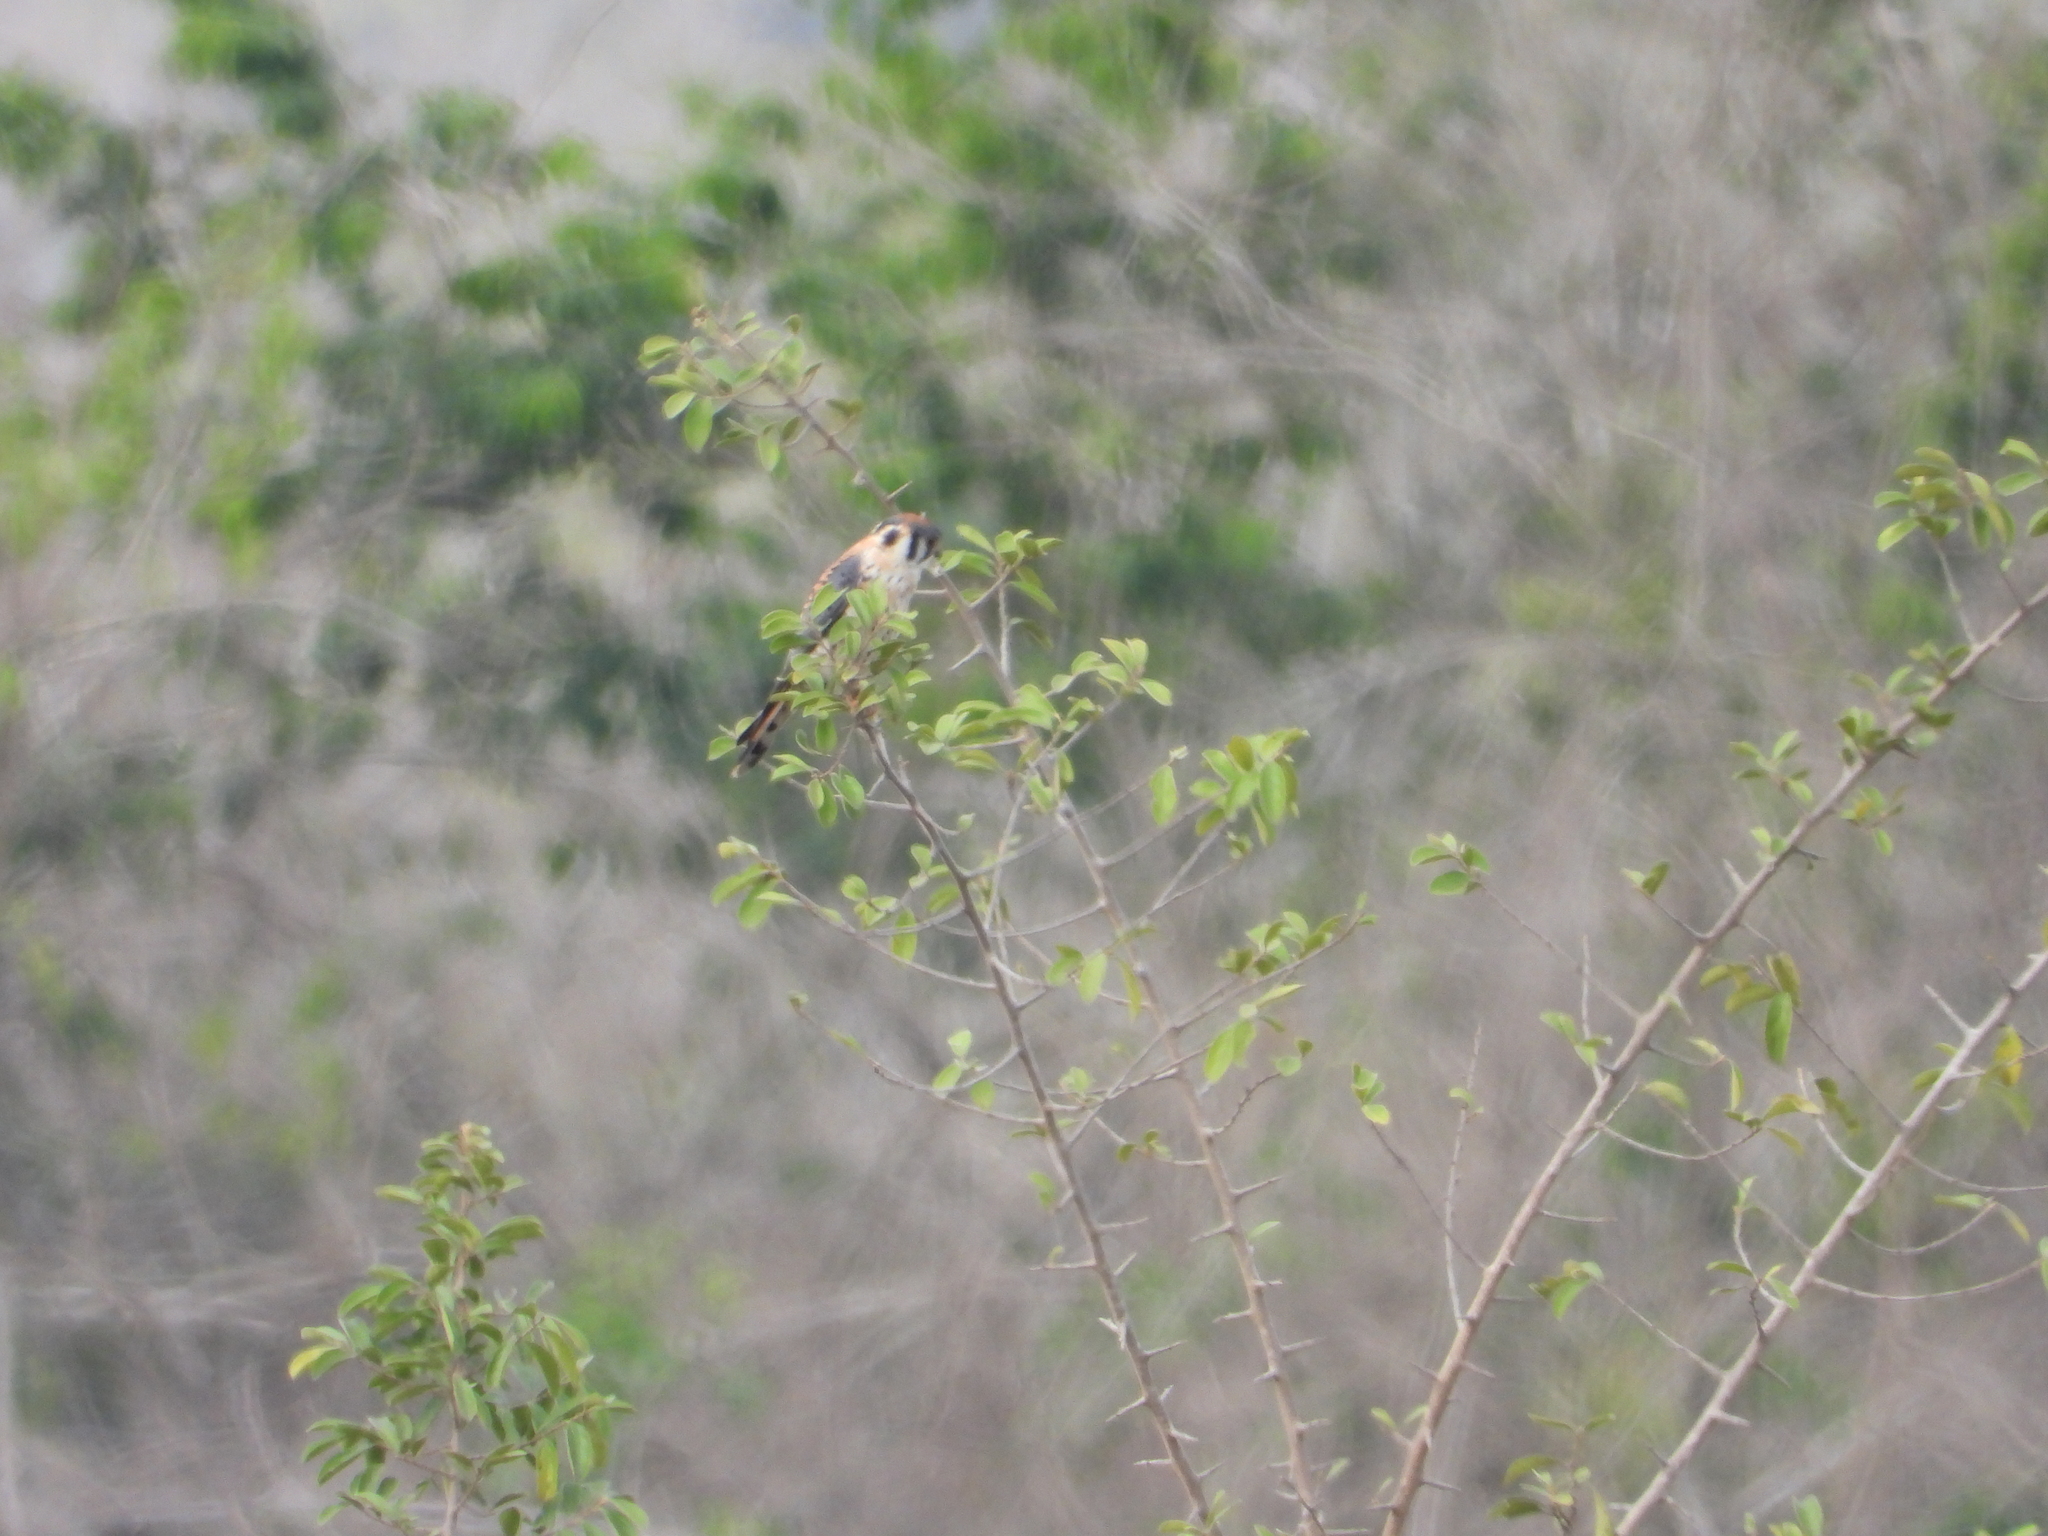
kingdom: Animalia
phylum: Chordata
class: Aves
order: Falconiformes
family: Falconidae
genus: Falco
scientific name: Falco sparverius
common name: American kestrel
